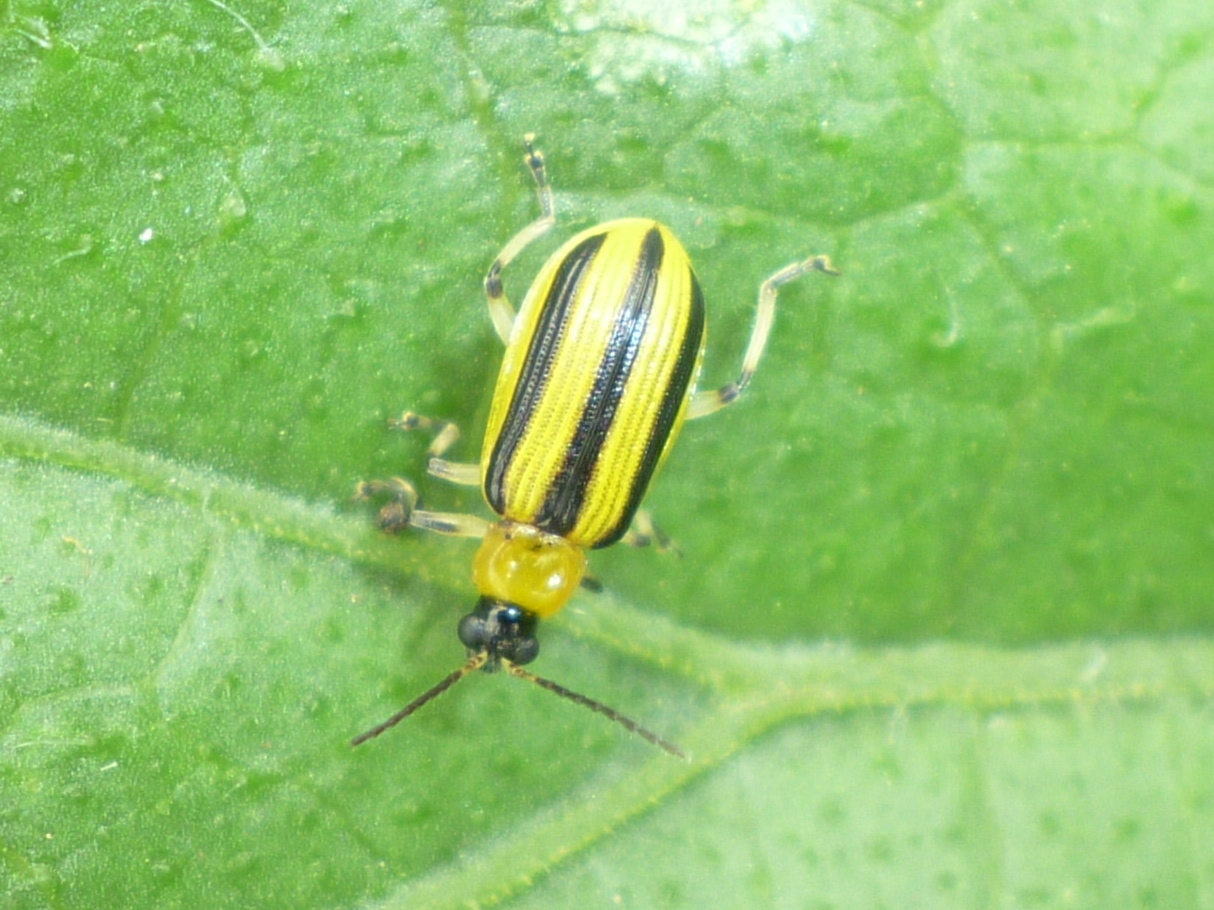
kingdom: Animalia
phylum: Arthropoda
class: Insecta
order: Coleoptera
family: Chrysomelidae
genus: Acalymma
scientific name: Acalymma vittatum
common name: Striped cucumber beetle
